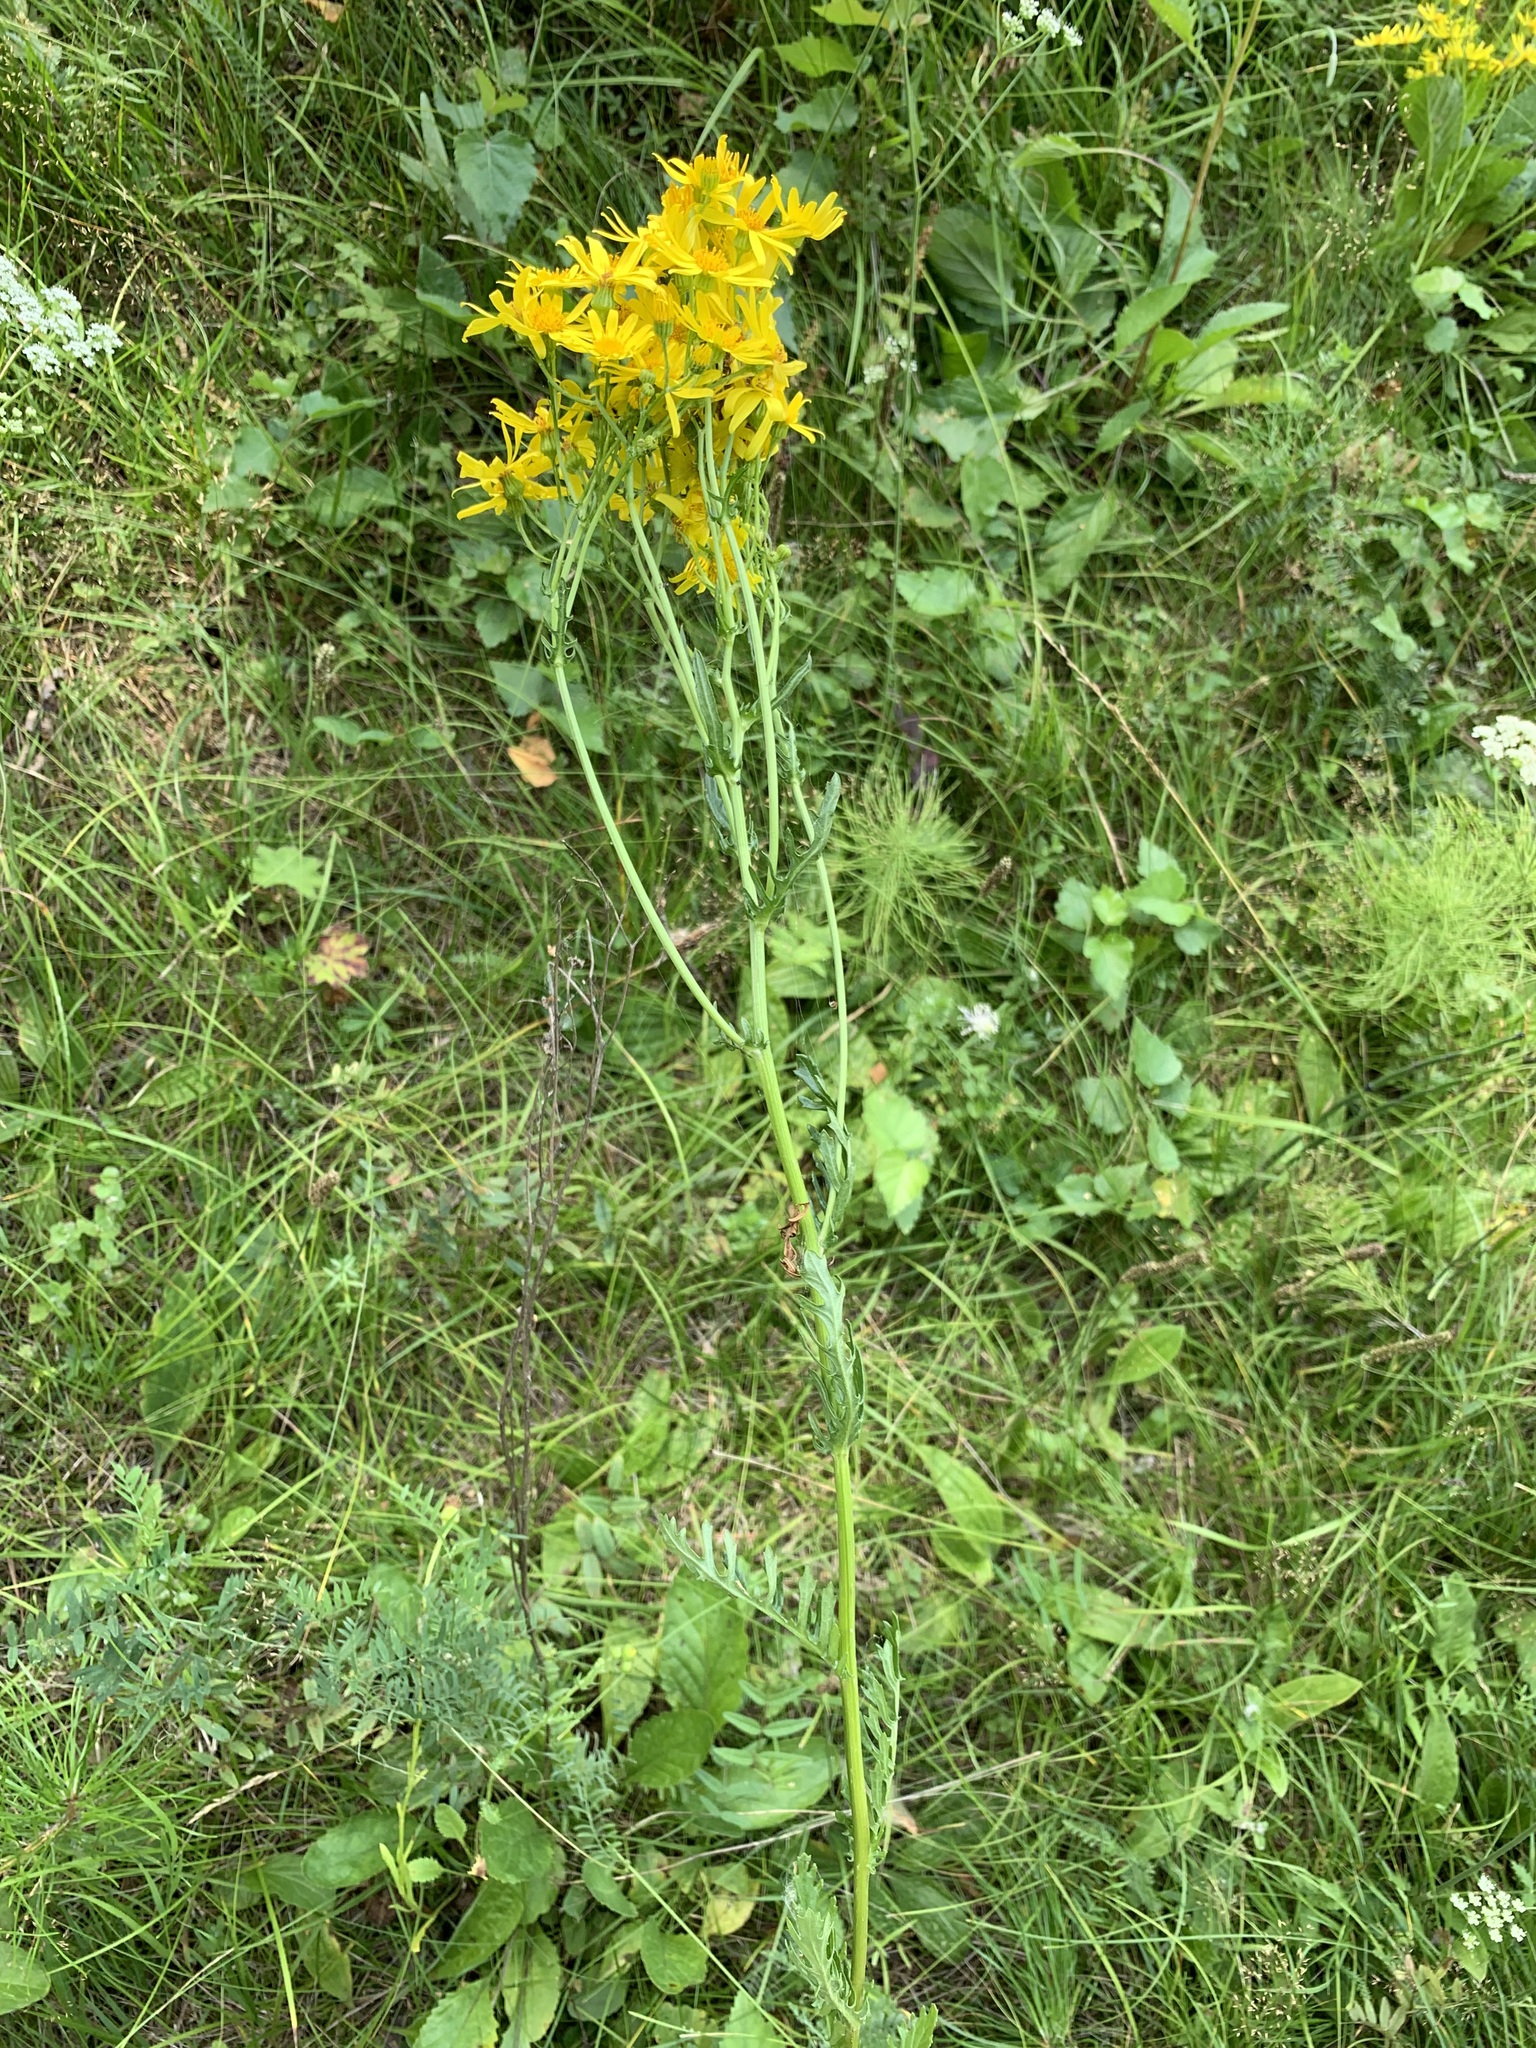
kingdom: Plantae
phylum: Tracheophyta
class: Magnoliopsida
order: Asterales
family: Asteraceae
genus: Jacobaea
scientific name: Jacobaea vulgaris
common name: Stinking willie
